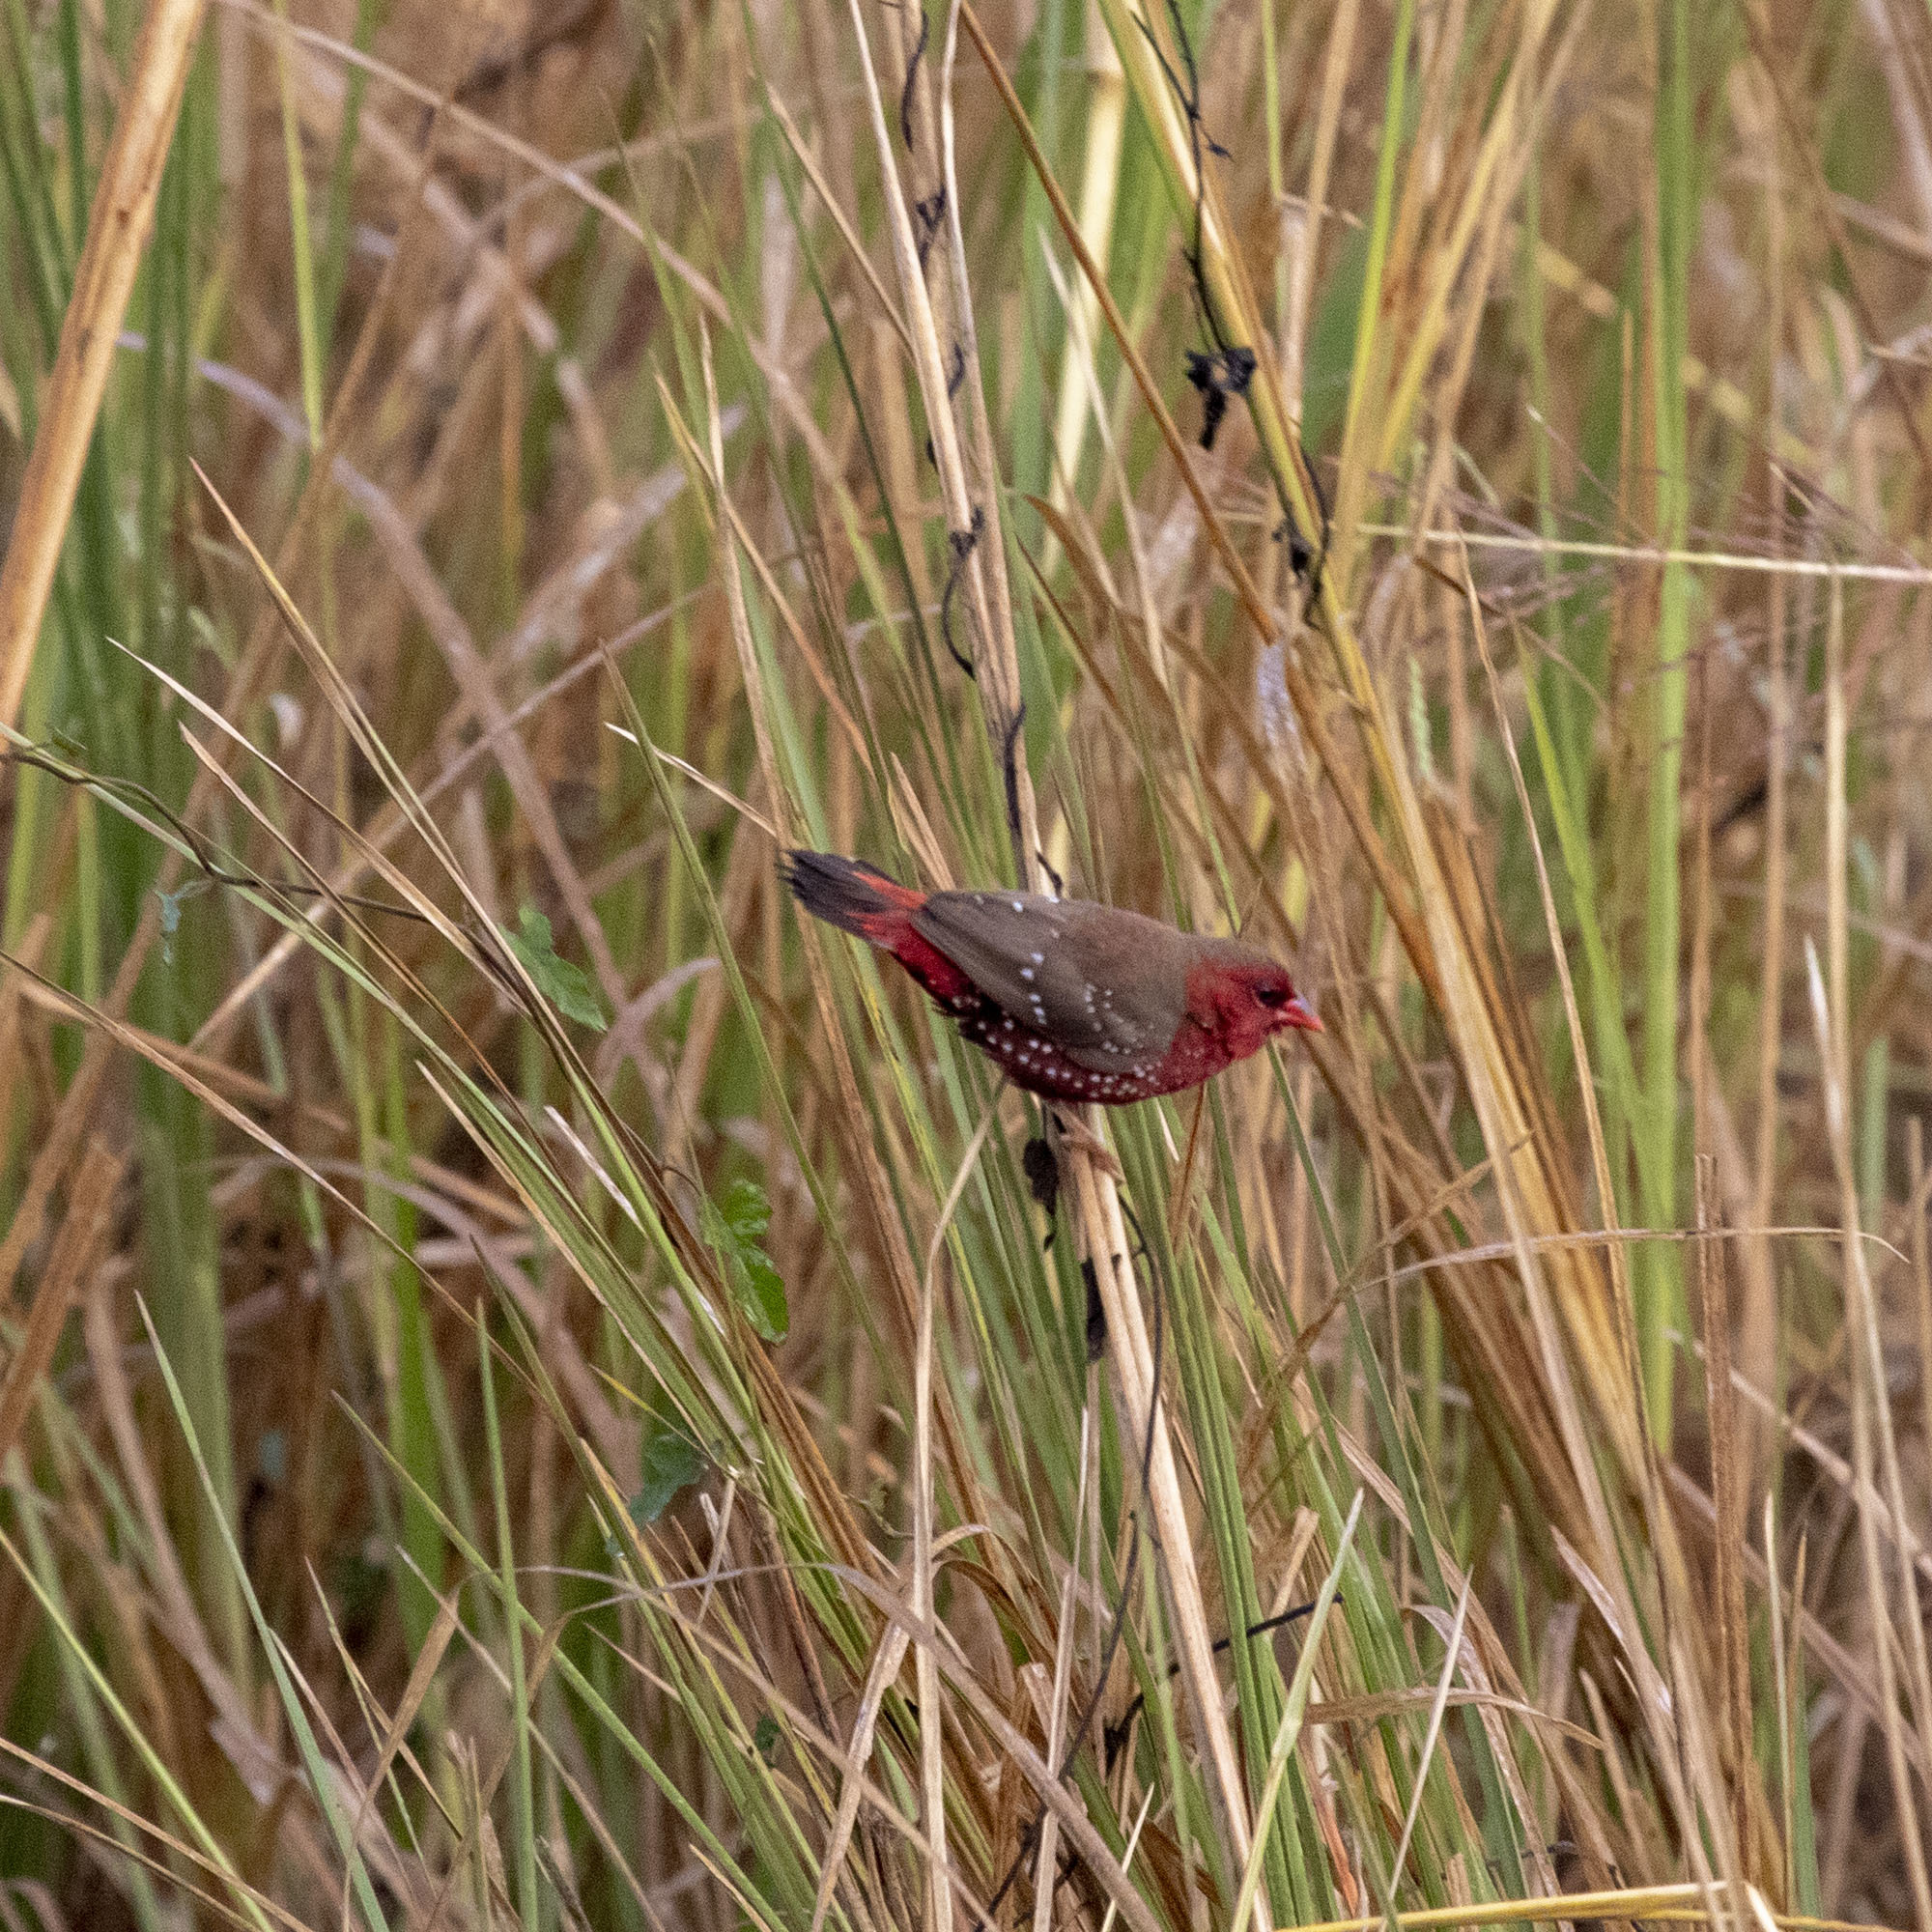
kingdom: Animalia
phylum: Chordata
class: Aves
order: Passeriformes
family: Estrildidae
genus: Amandava
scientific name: Amandava amandava
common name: Red avadavat
